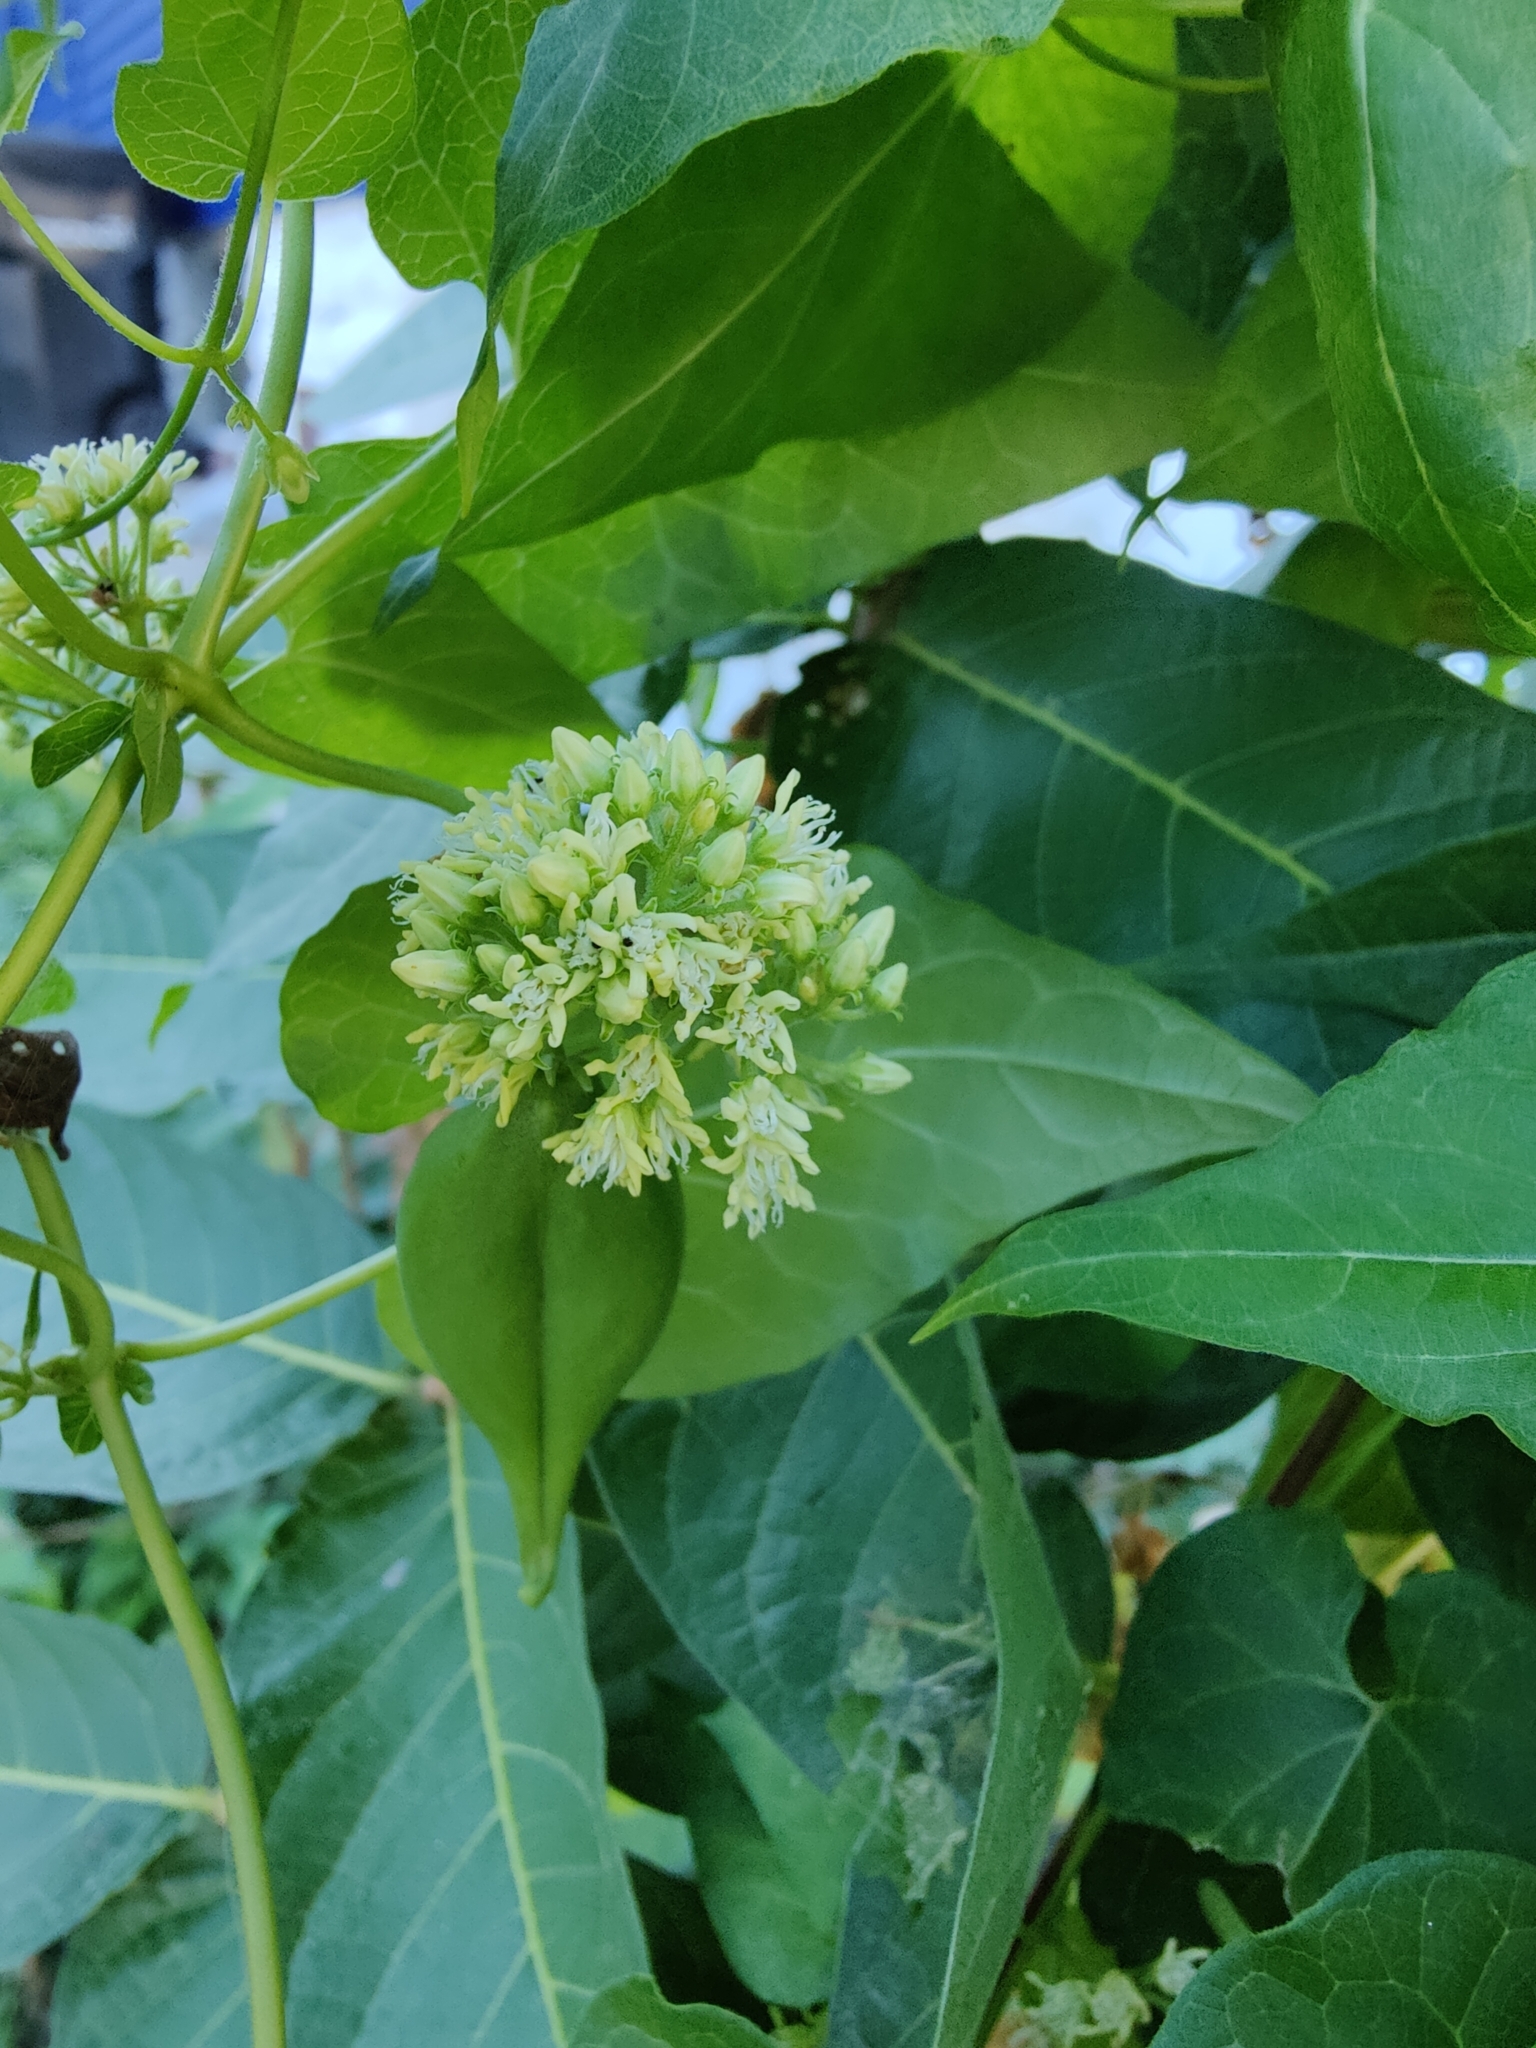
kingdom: Plantae
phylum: Tracheophyta
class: Magnoliopsida
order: Gentianales
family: Apocynaceae
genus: Cynanchum
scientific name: Cynanchum laeve
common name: Sandvine
